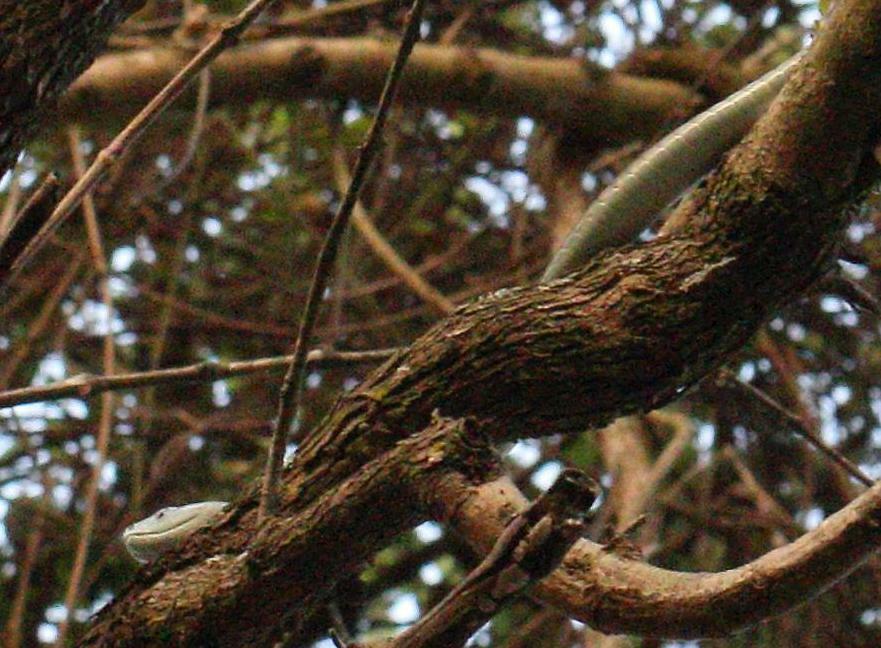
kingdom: Animalia
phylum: Chordata
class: Squamata
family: Elapidae
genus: Dendroaspis
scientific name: Dendroaspis polylepis
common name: Black mamba
